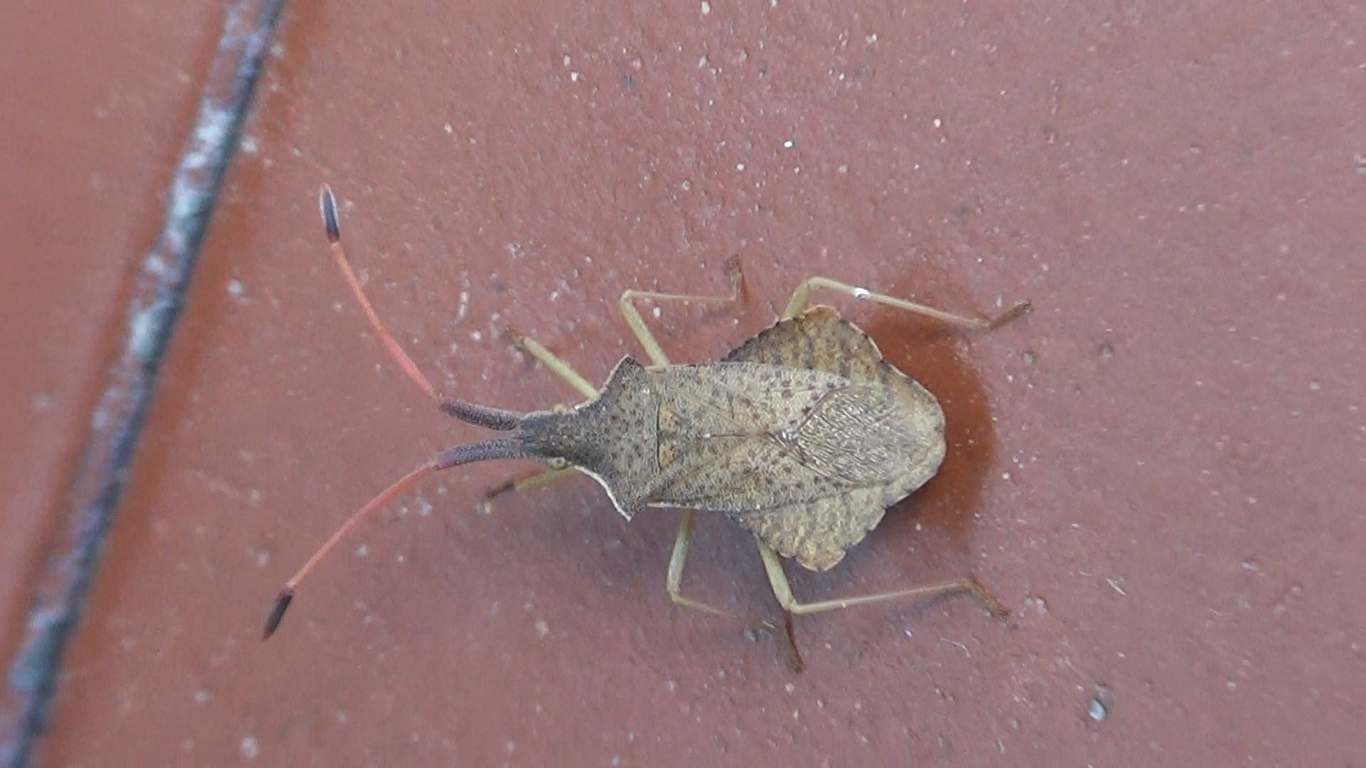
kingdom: Animalia
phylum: Arthropoda
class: Insecta
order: Hemiptera
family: Coreidae
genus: Syromastus
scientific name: Syromastus rhombeus
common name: Rhombic leatherbug
